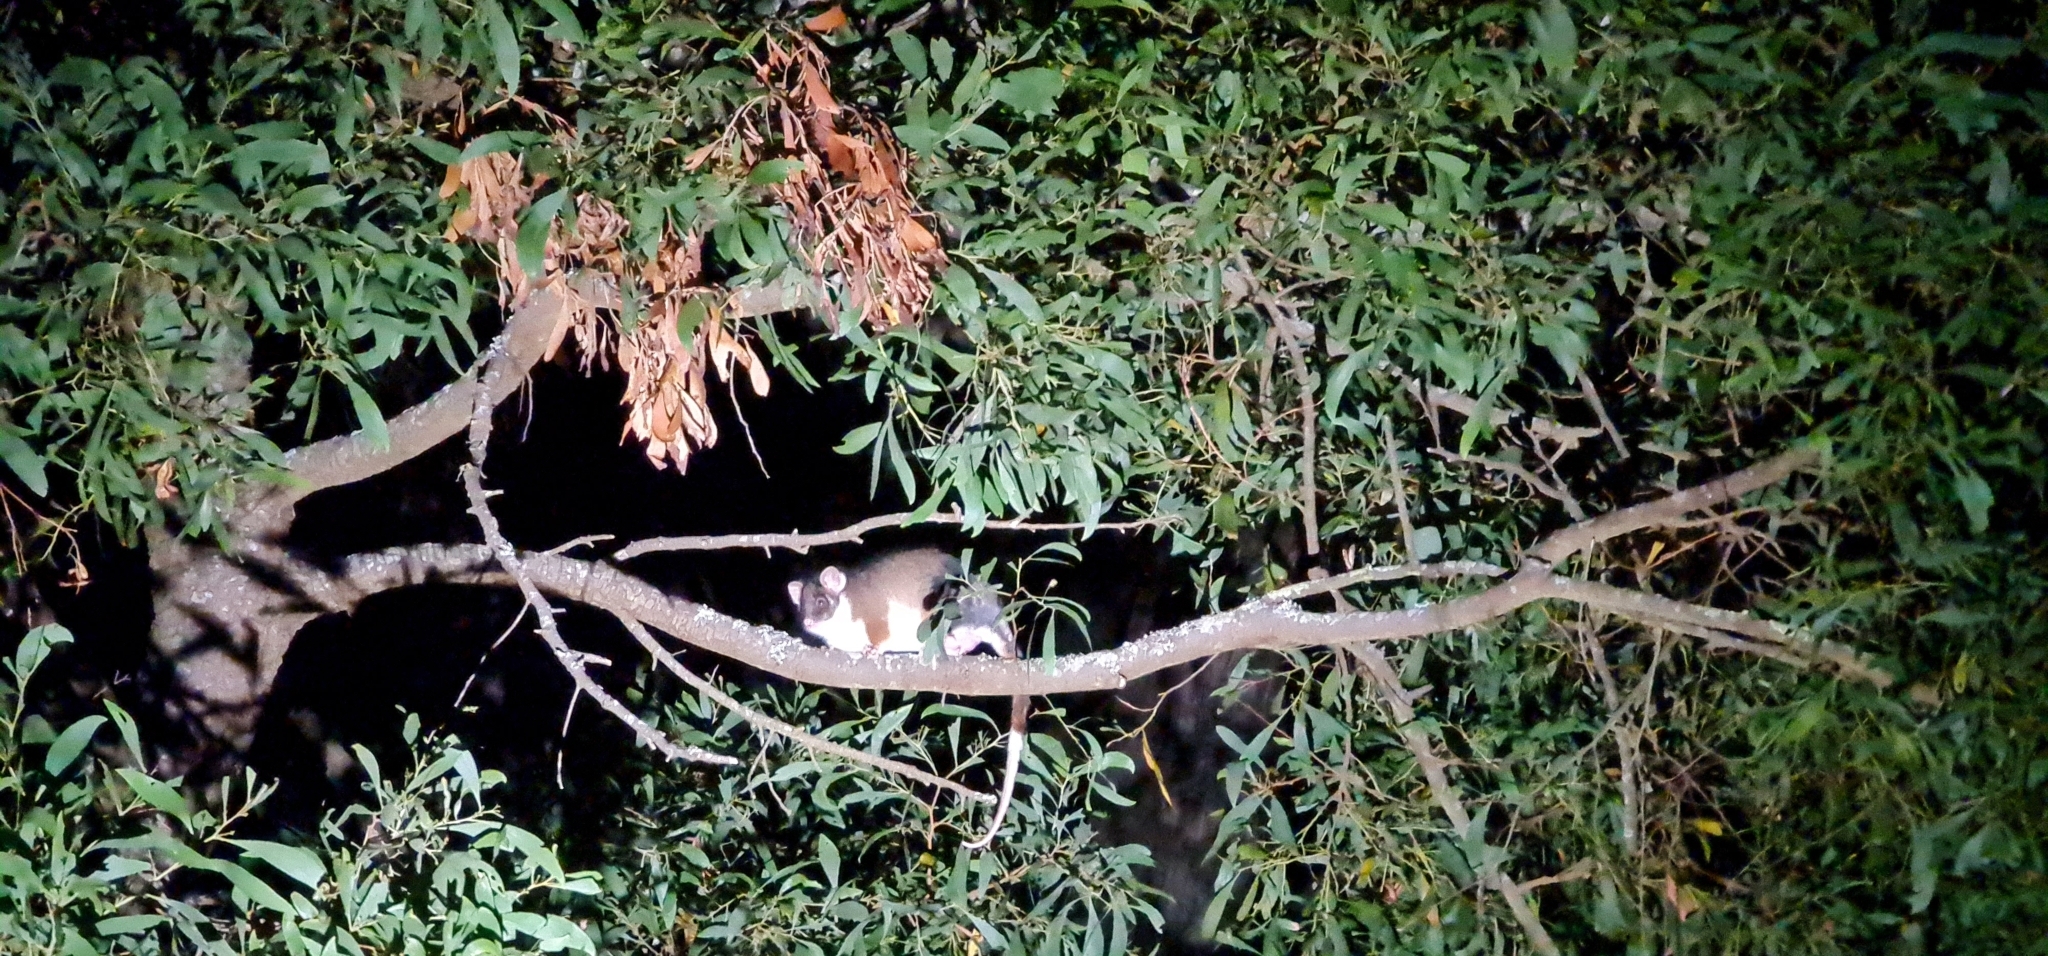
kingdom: Animalia
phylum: Chordata
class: Mammalia
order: Diprotodontia
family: Pseudocheiridae
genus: Pseudocheirus
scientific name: Pseudocheirus peregrinus
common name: Common ringtail possum
